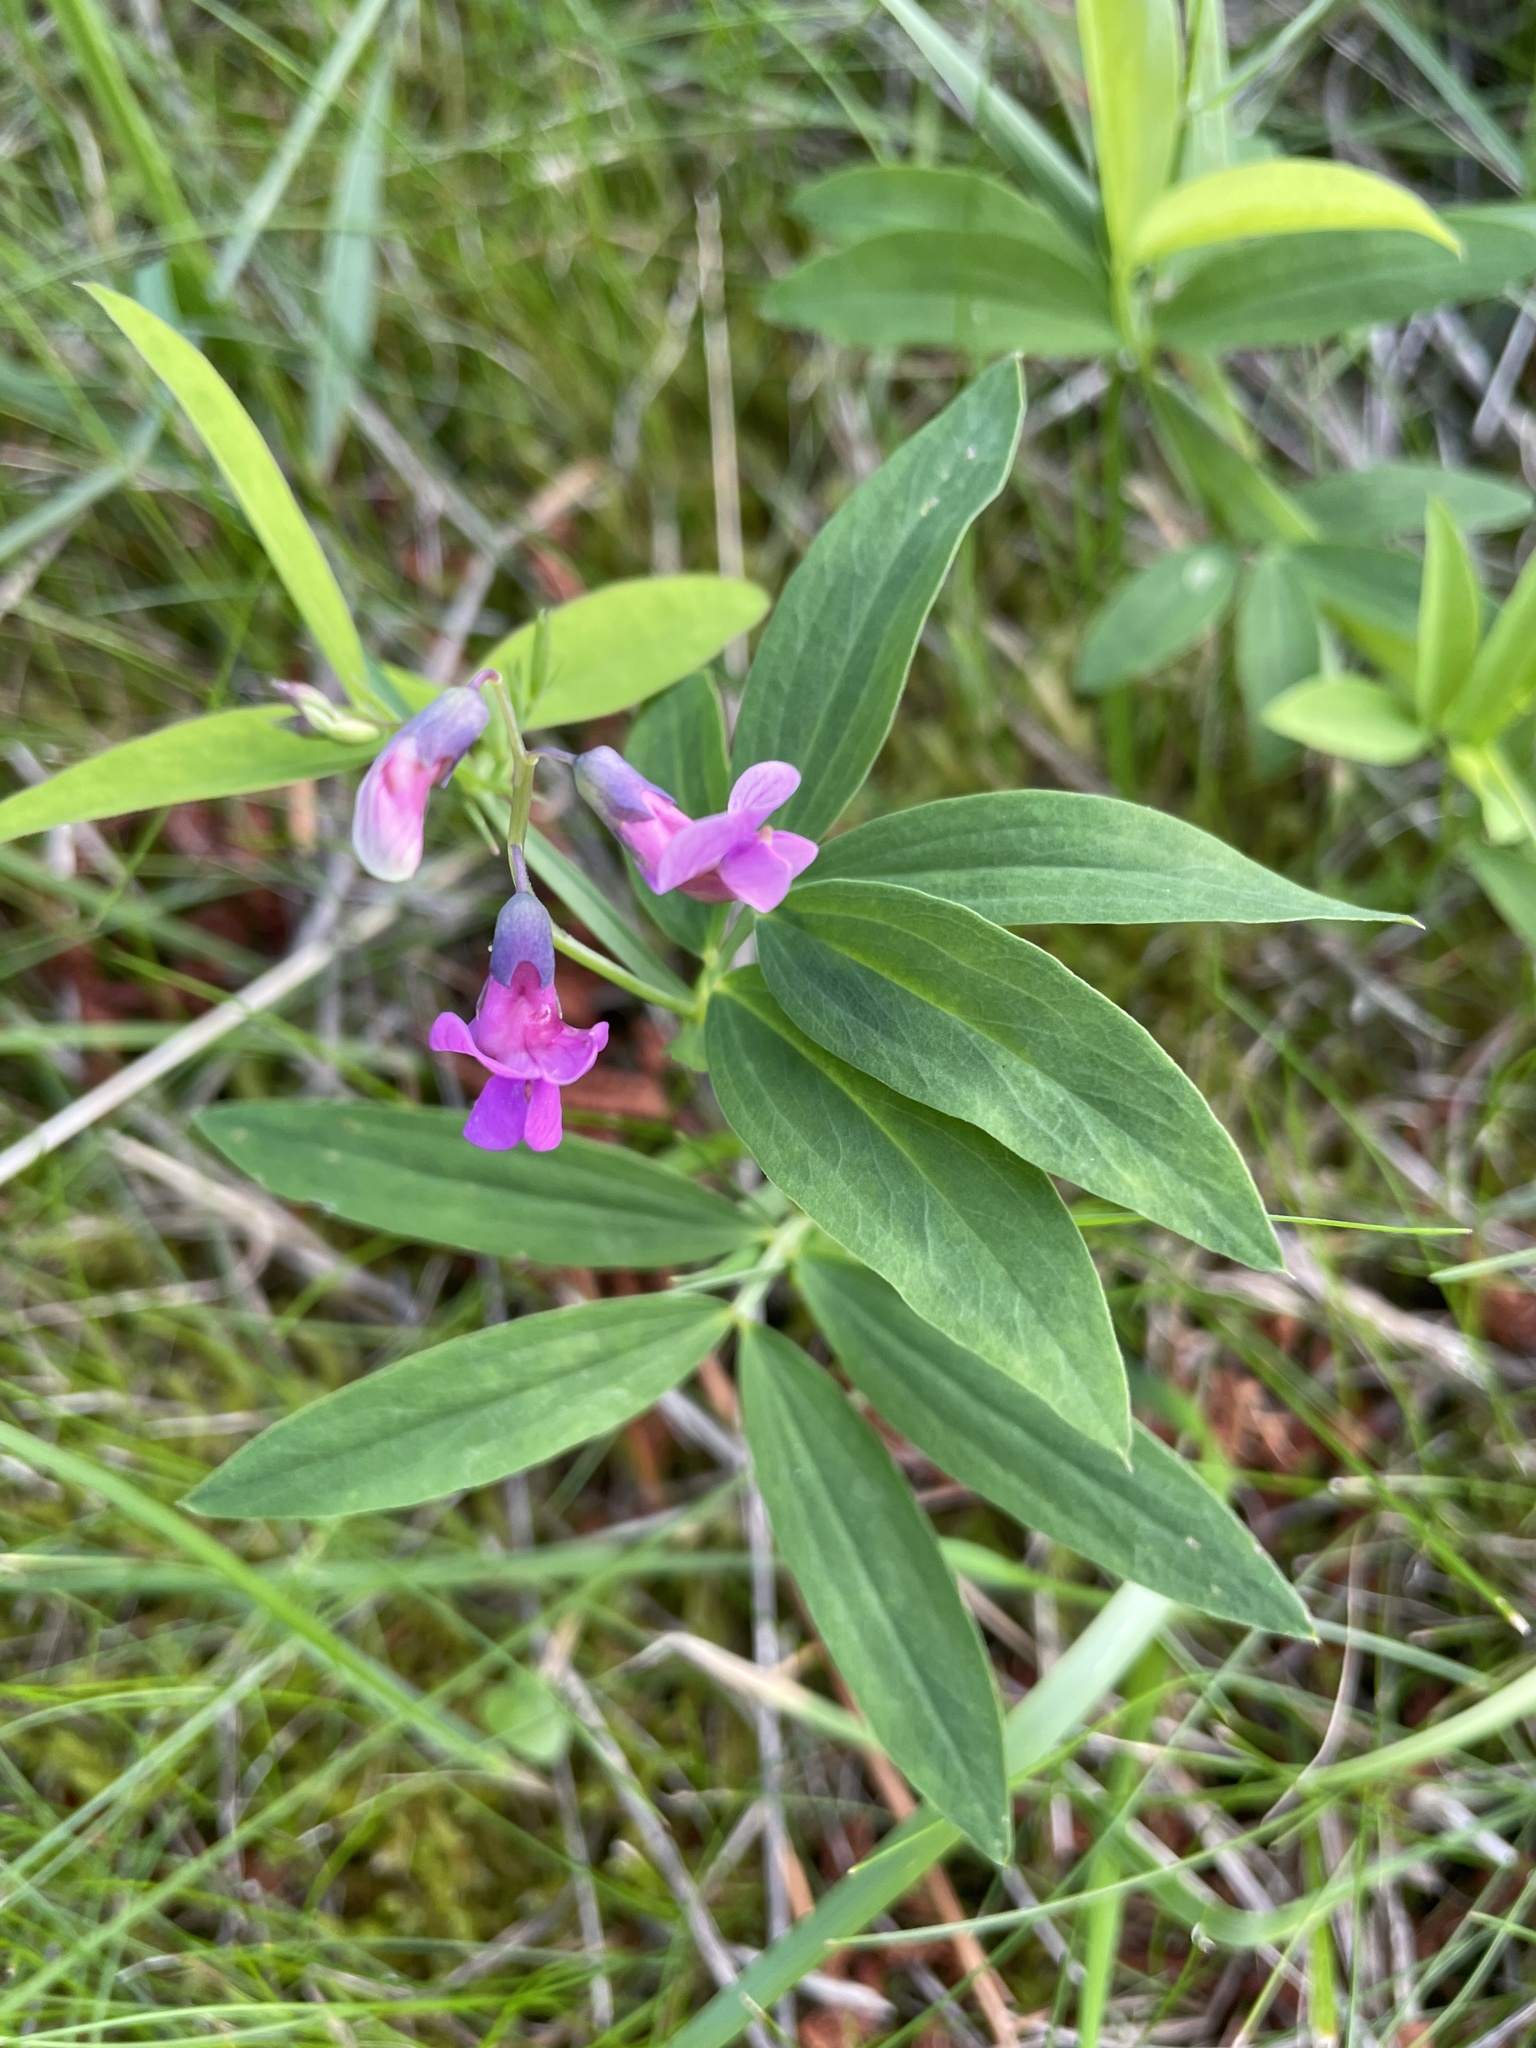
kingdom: Plantae
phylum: Tracheophyta
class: Magnoliopsida
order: Fabales
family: Fabaceae
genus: Lathyrus
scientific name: Lathyrus linifolius
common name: Bitter-vetch
